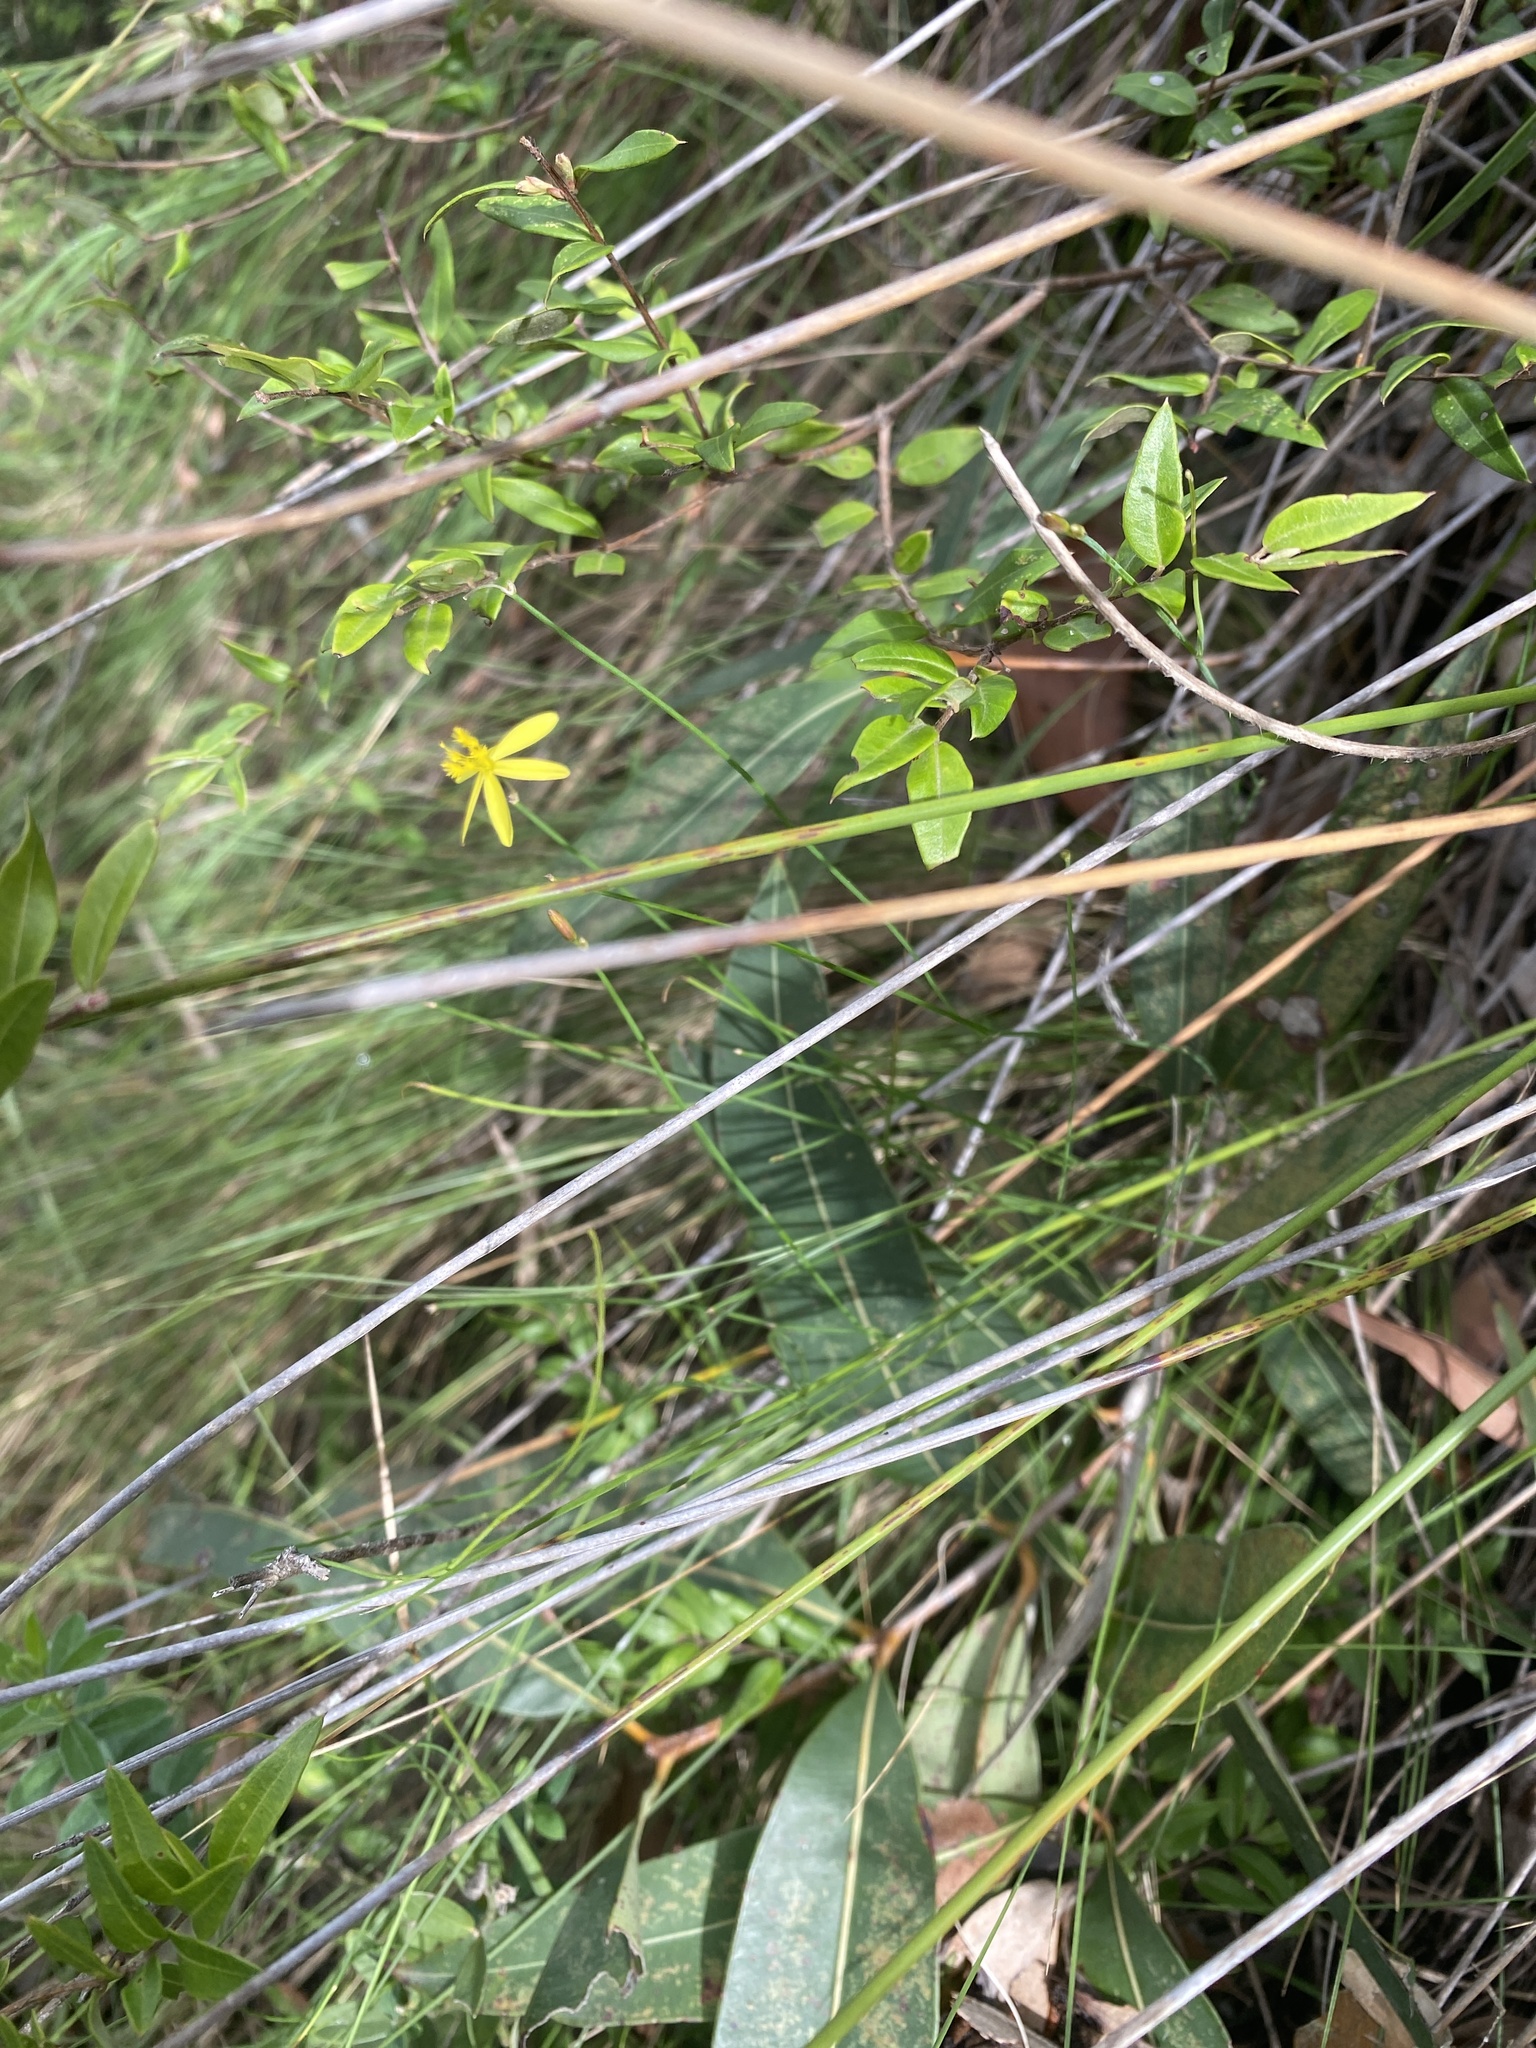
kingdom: Plantae
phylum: Tracheophyta
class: Liliopsida
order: Asparagales
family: Asphodelaceae
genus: Tricoryne
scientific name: Tricoryne anceps
